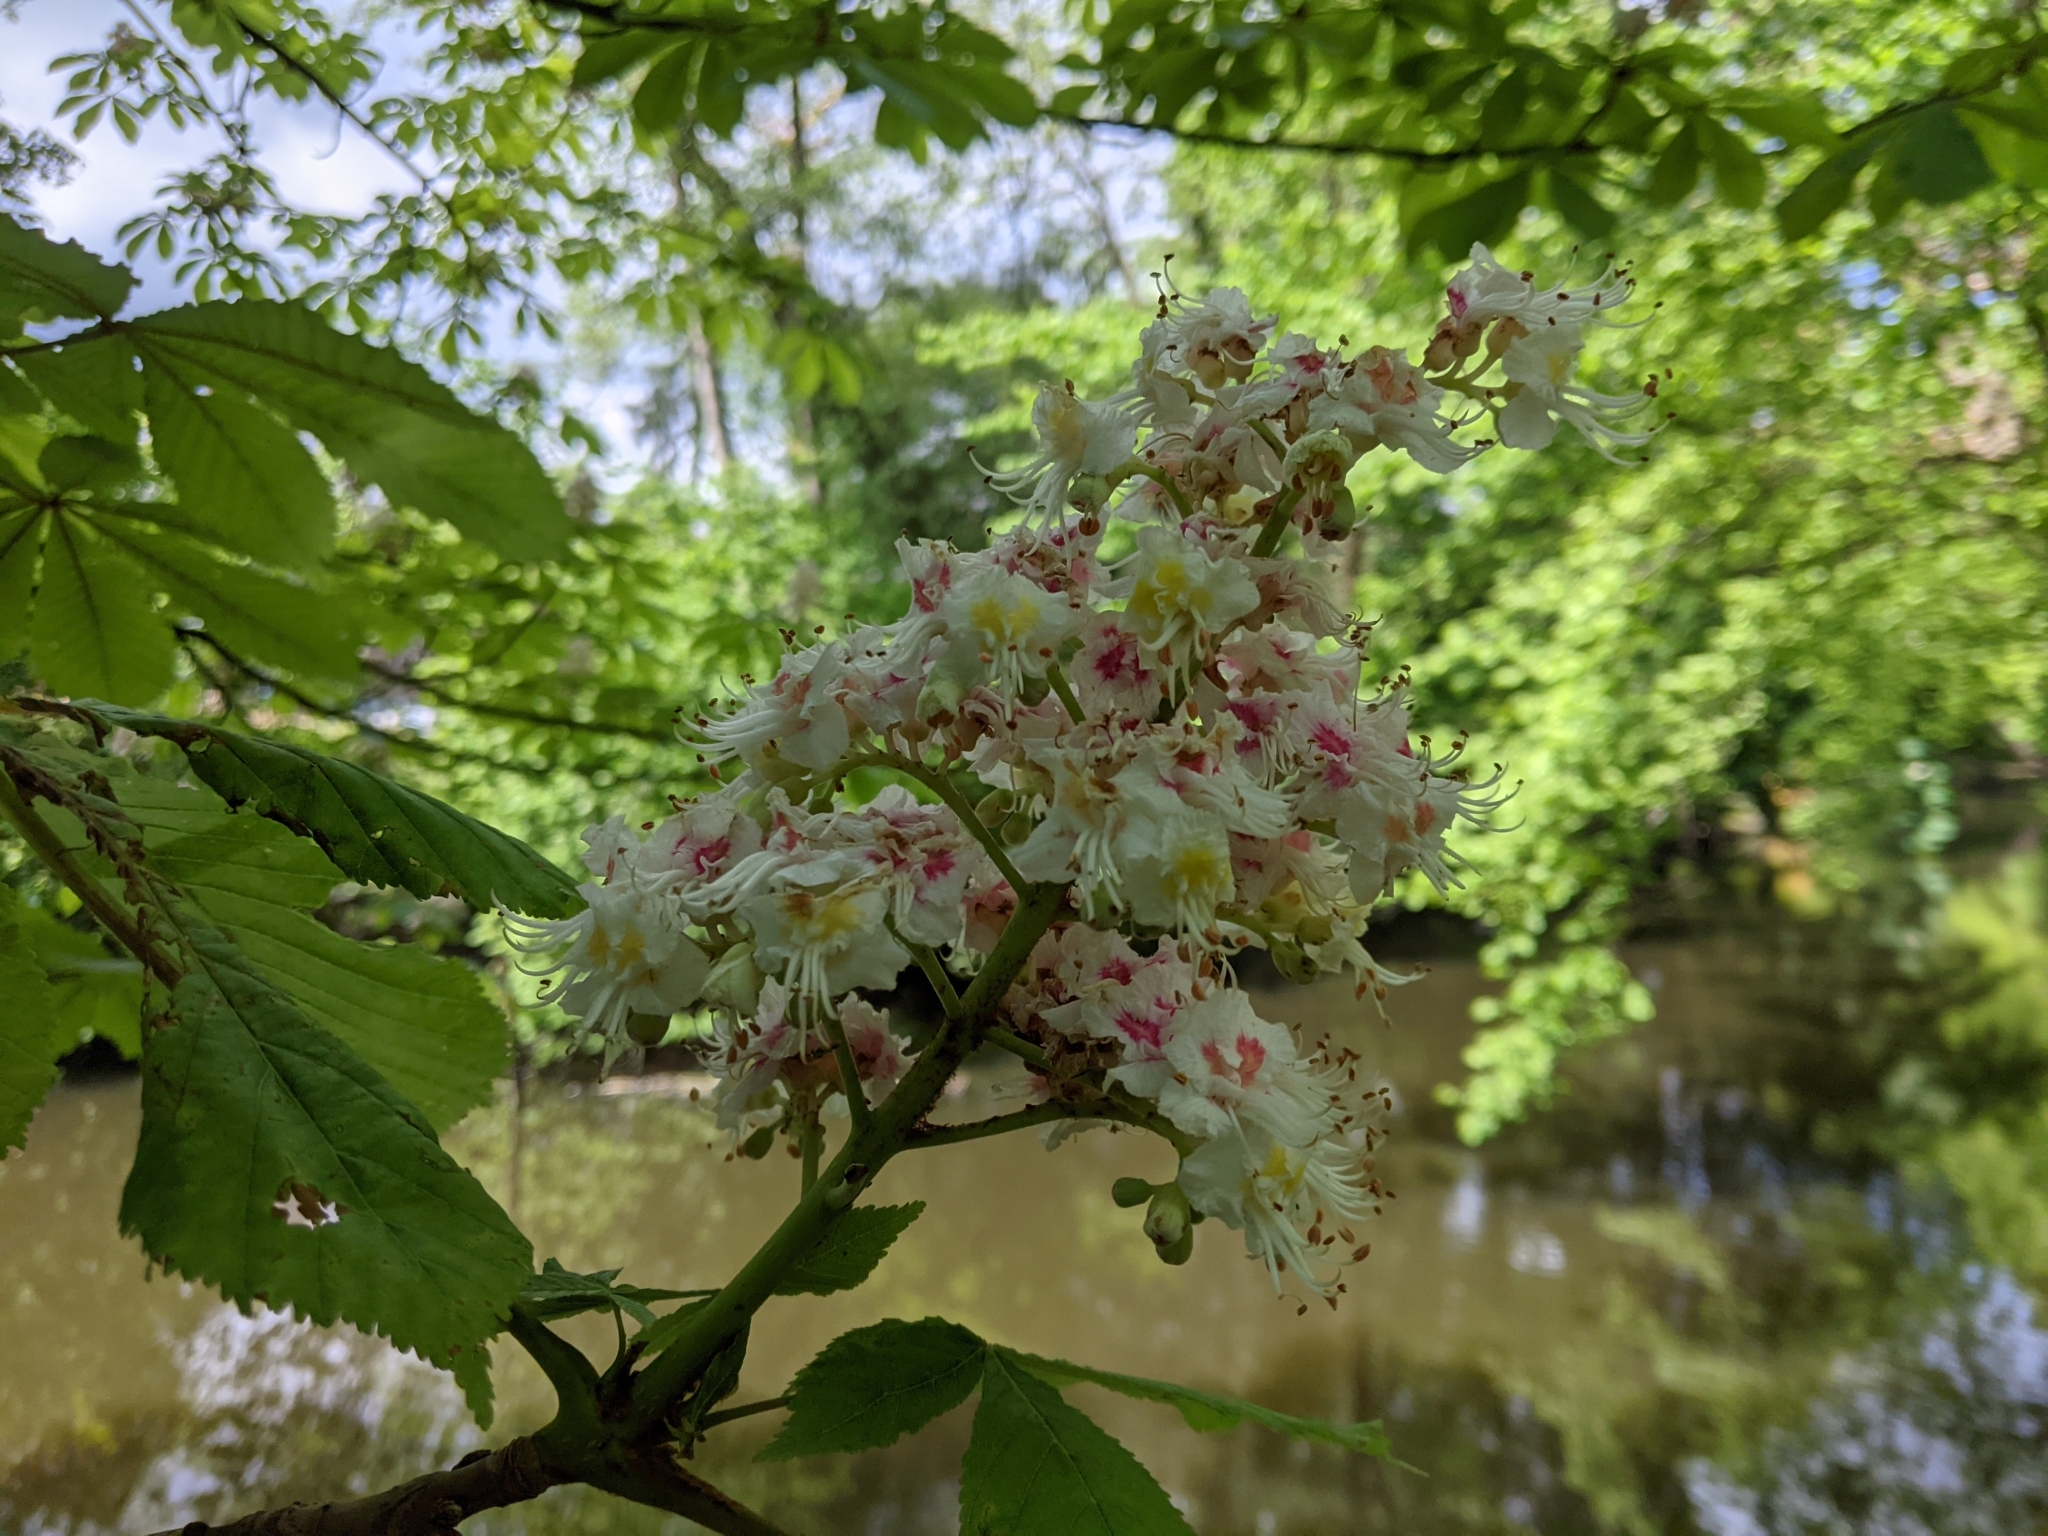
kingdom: Plantae
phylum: Tracheophyta
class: Magnoliopsida
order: Sapindales
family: Sapindaceae
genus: Aesculus
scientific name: Aesculus hippocastanum
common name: Horse-chestnut
